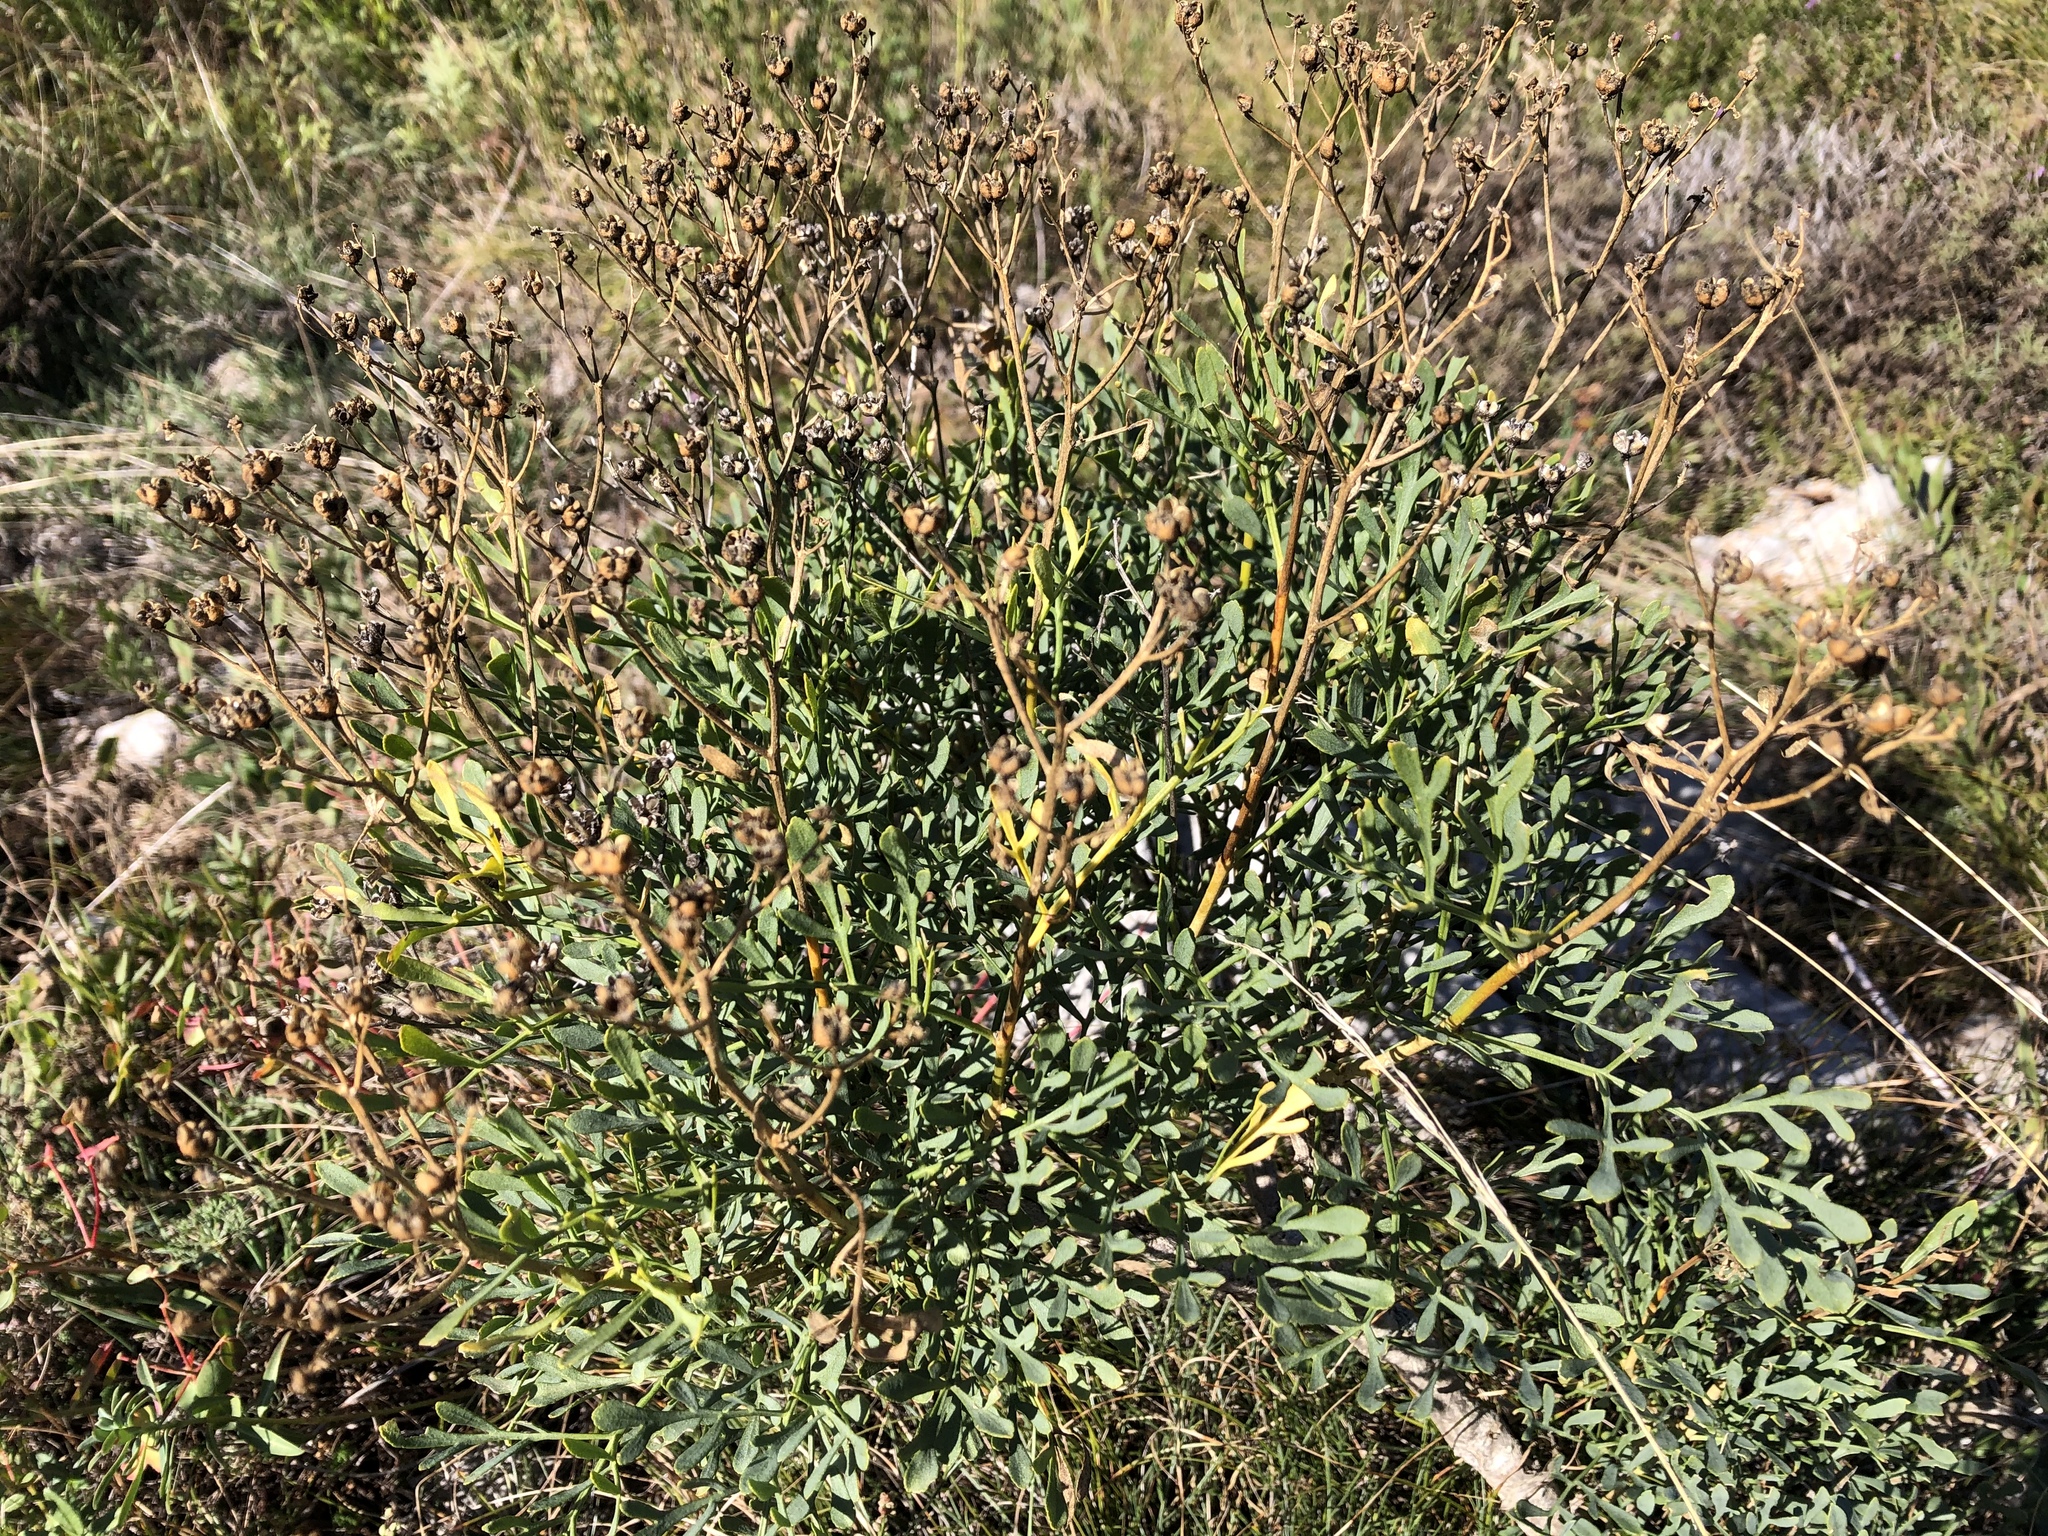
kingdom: Plantae
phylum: Tracheophyta
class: Magnoliopsida
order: Sapindales
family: Rutaceae
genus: Ruta
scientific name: Ruta graveolens
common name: Common rue
